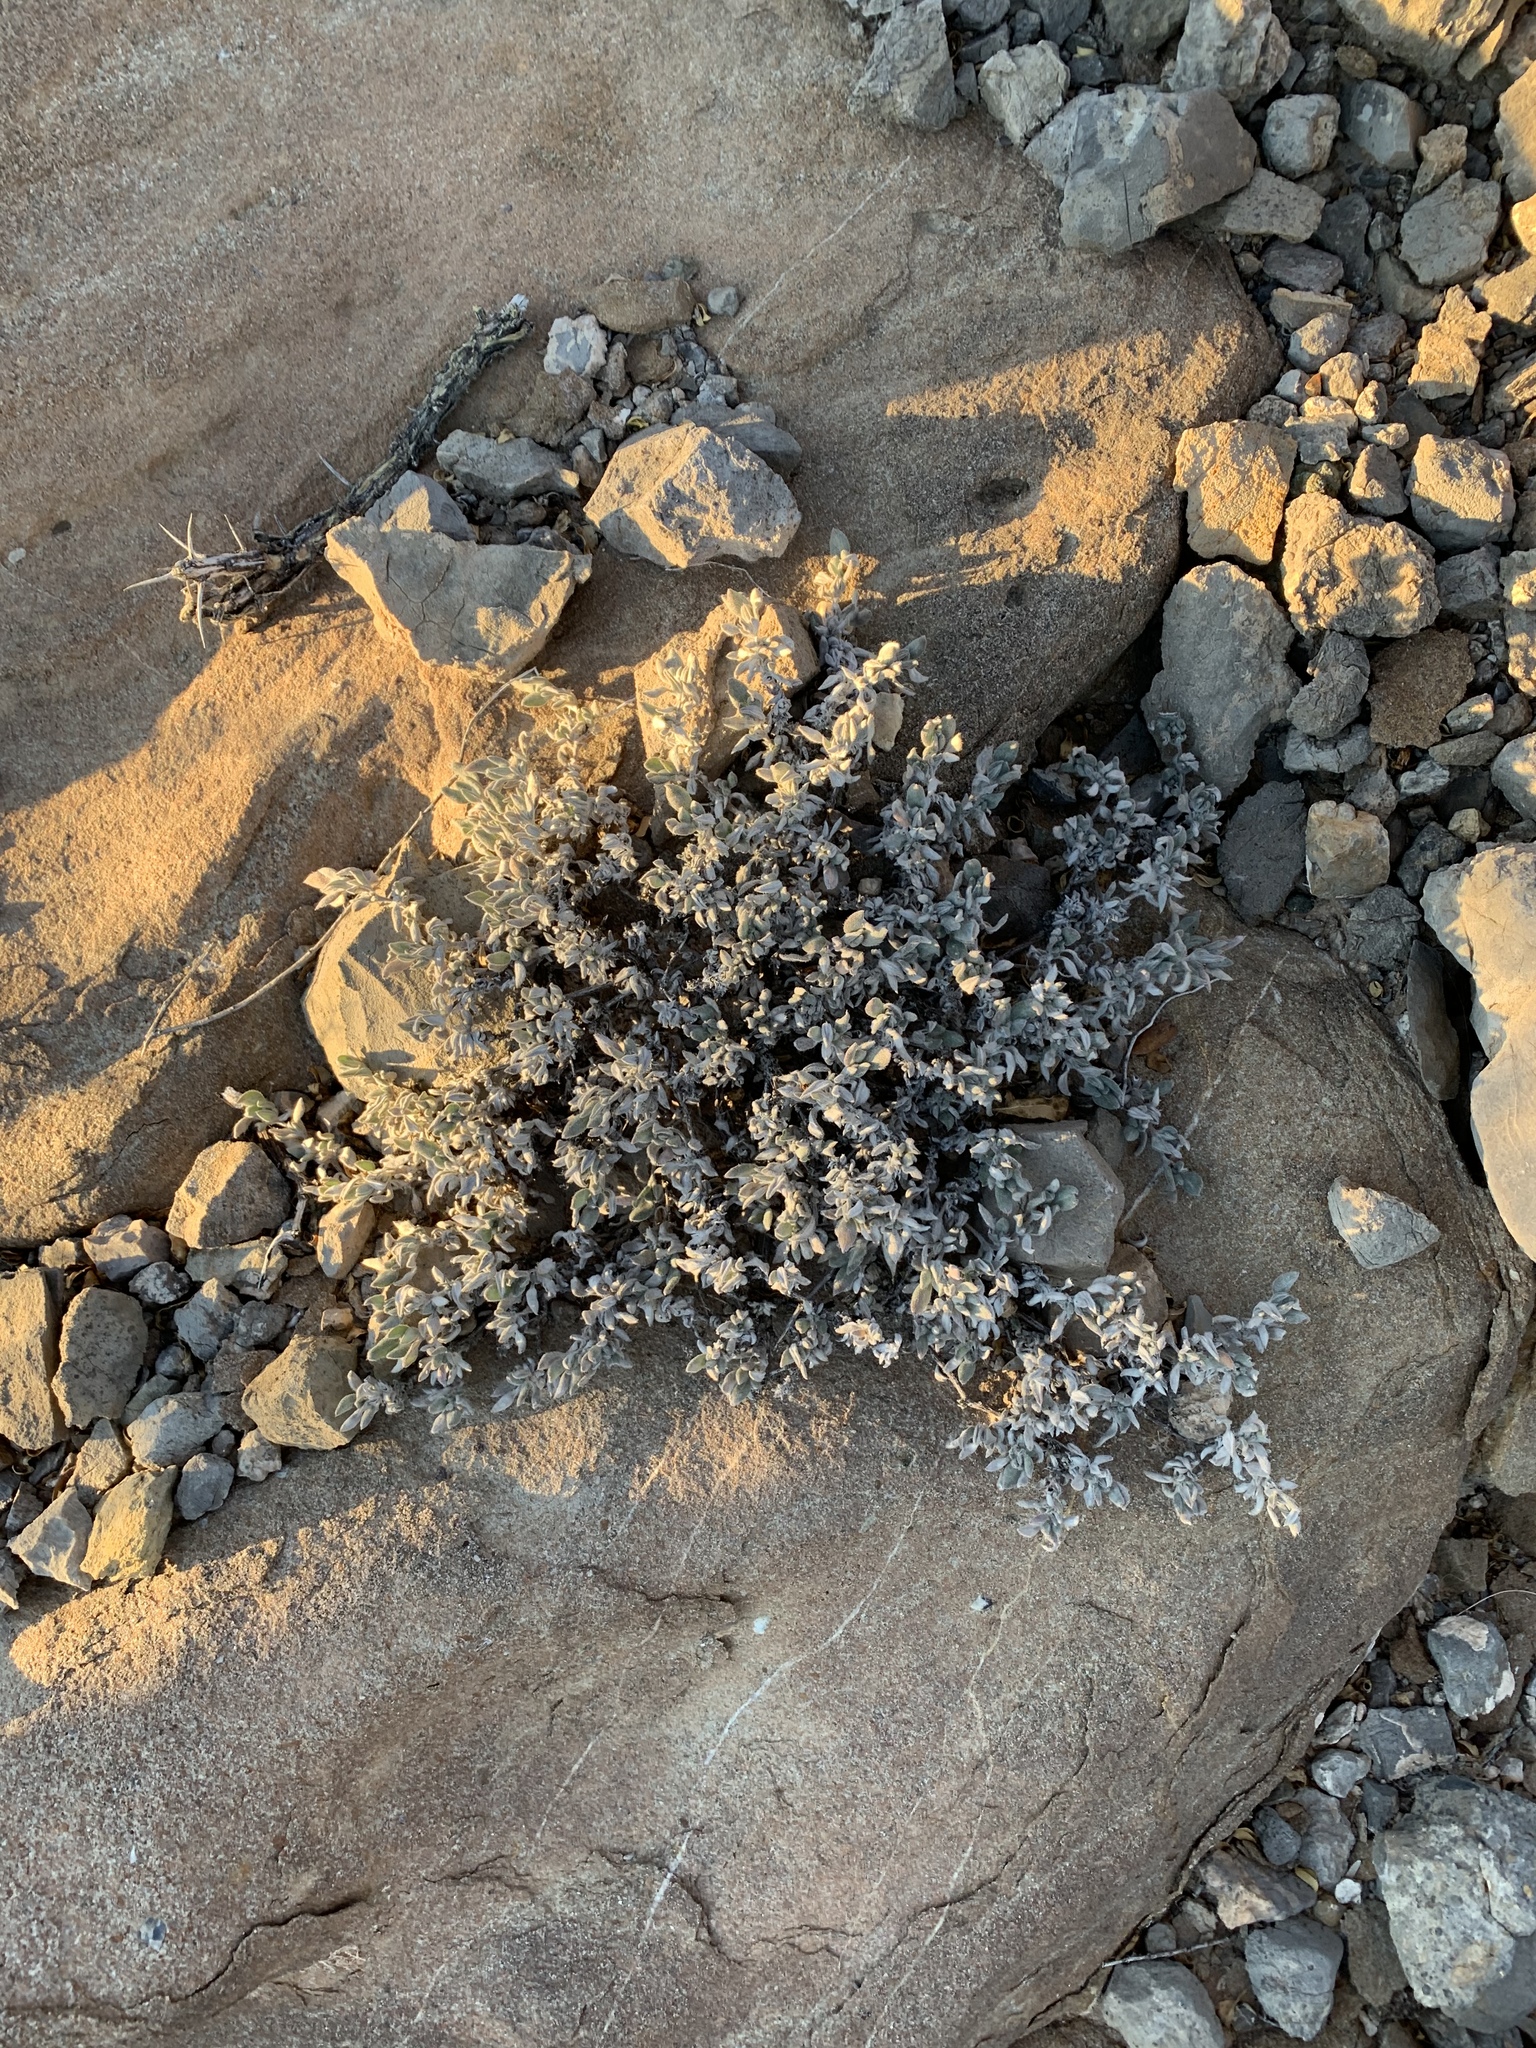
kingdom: Plantae
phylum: Tracheophyta
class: Magnoliopsida
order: Boraginales
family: Ehretiaceae
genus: Tiquilia
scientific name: Tiquilia canescens
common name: Hairy tiquilia
